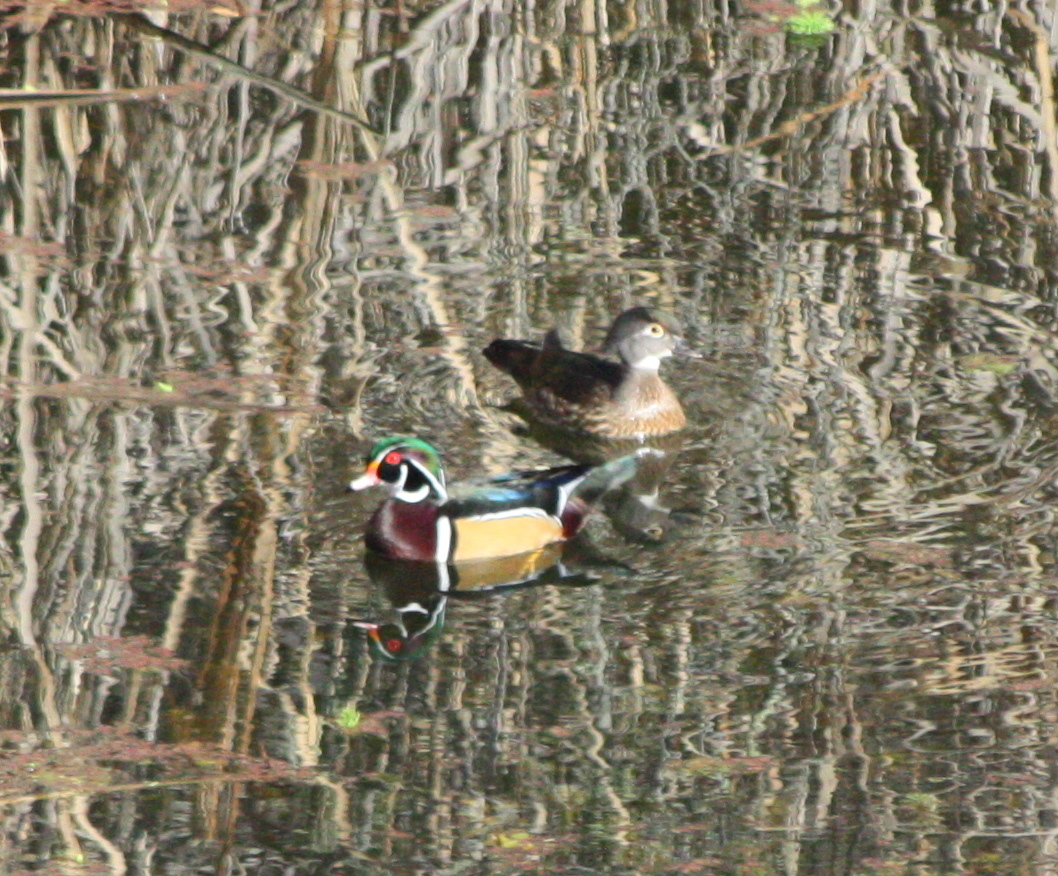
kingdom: Animalia
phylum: Chordata
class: Aves
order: Anseriformes
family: Anatidae
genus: Aix
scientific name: Aix sponsa
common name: Wood duck
